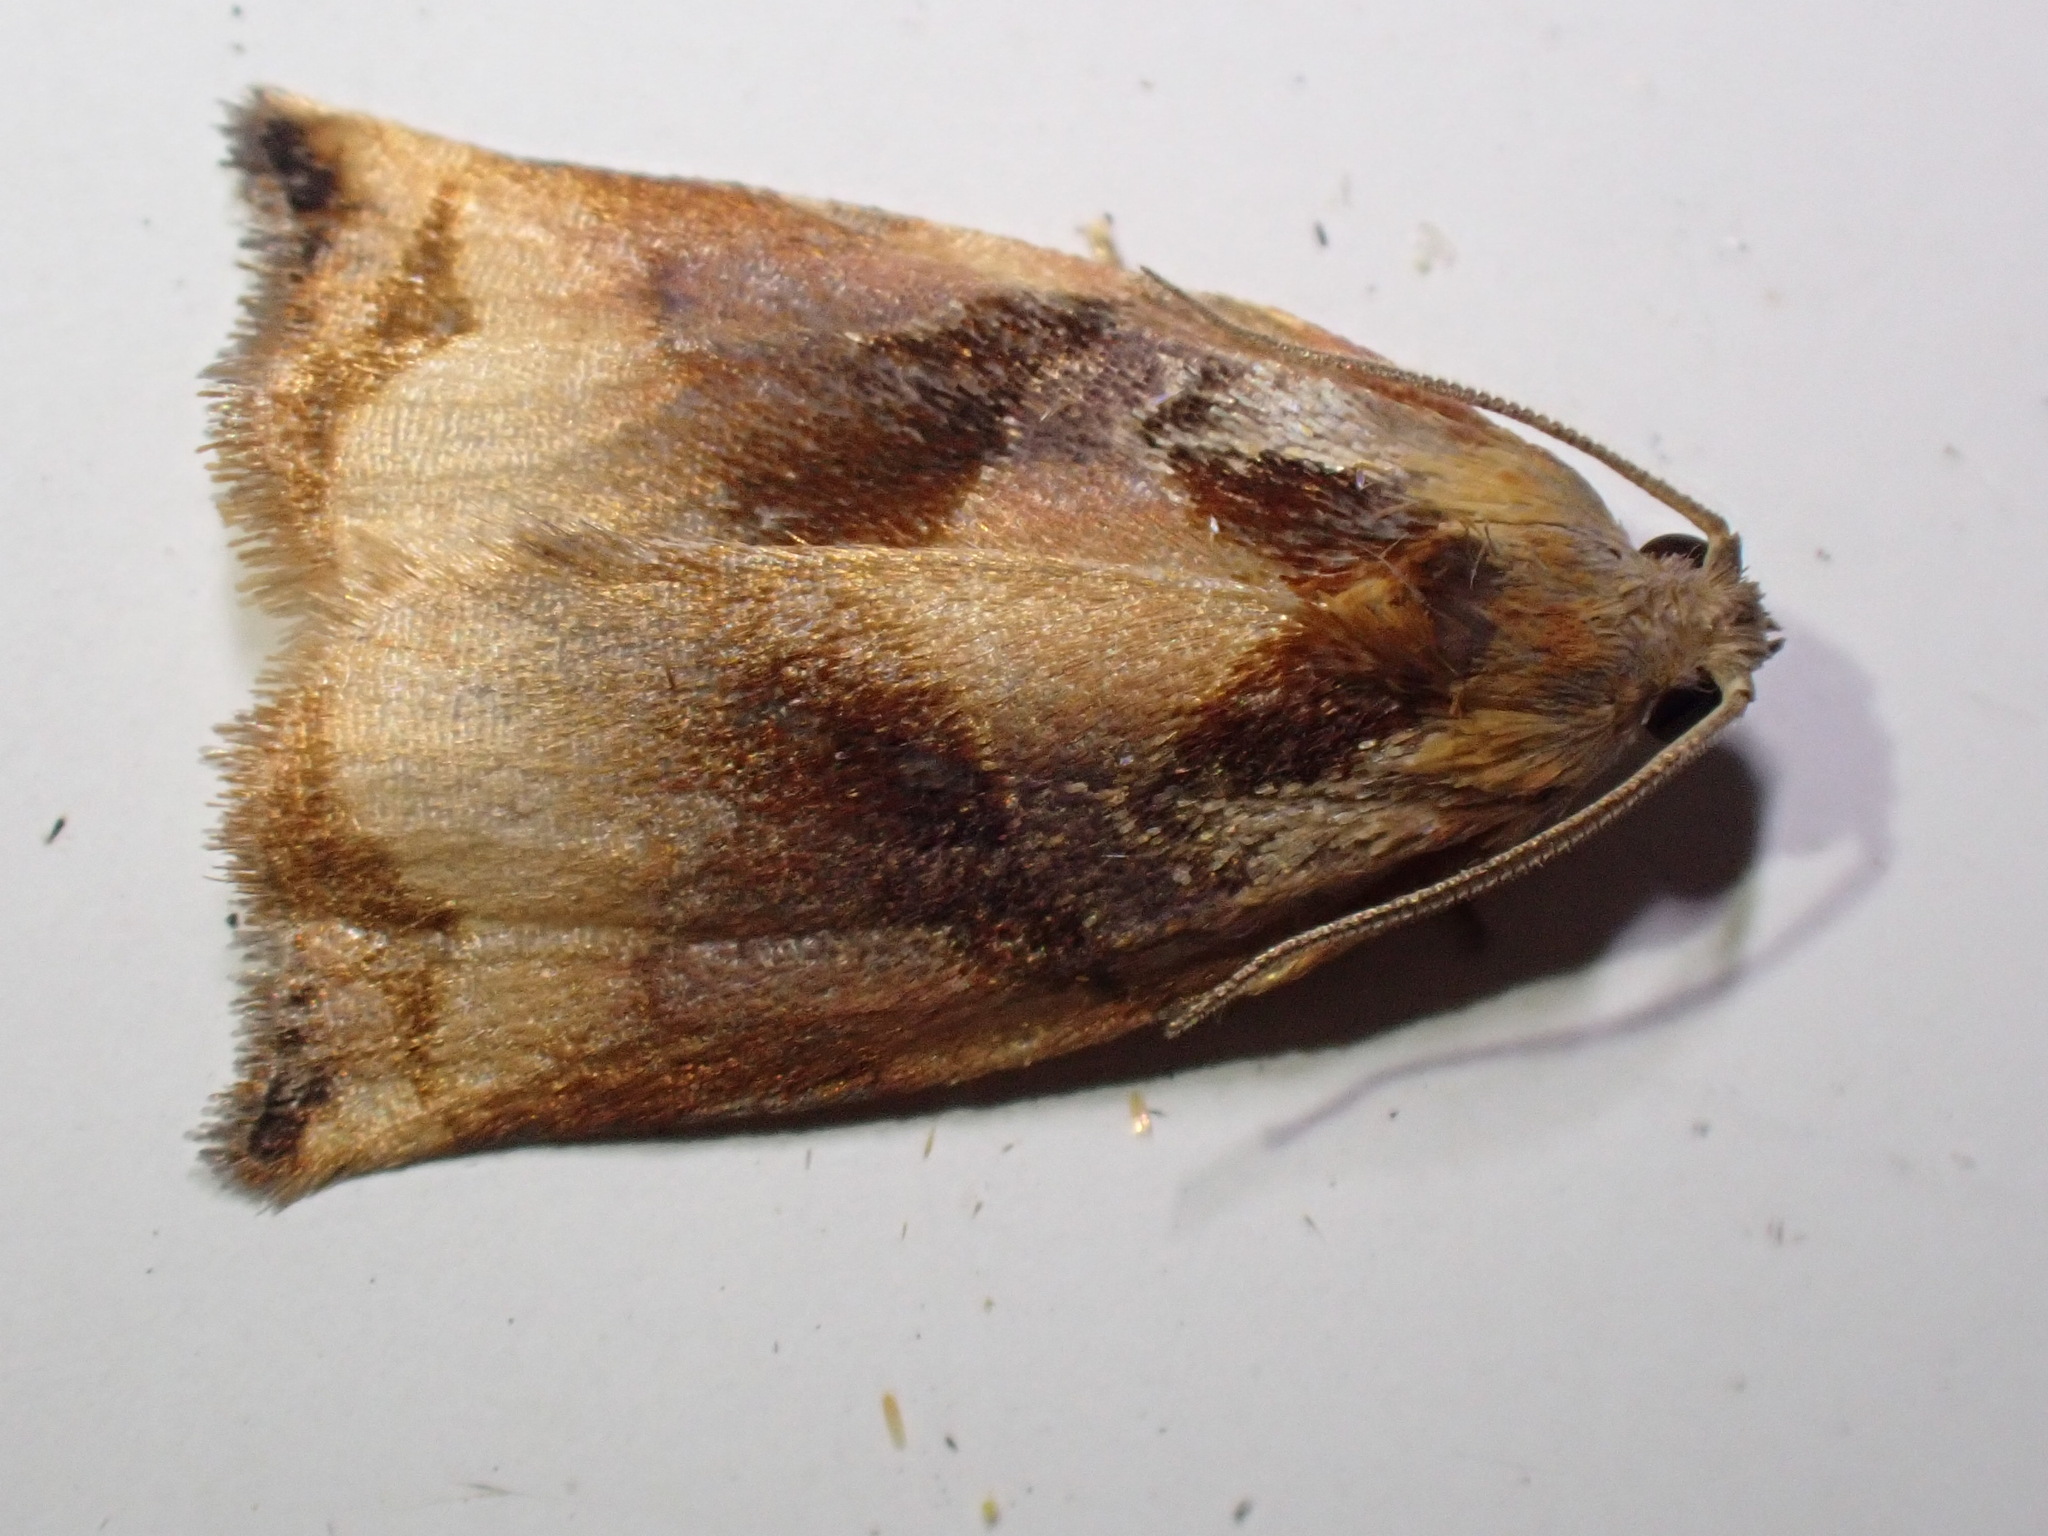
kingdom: Animalia
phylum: Arthropoda
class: Insecta
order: Lepidoptera
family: Tortricidae
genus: Archips
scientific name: Archips podana
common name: Large fruit-tree tortrix
